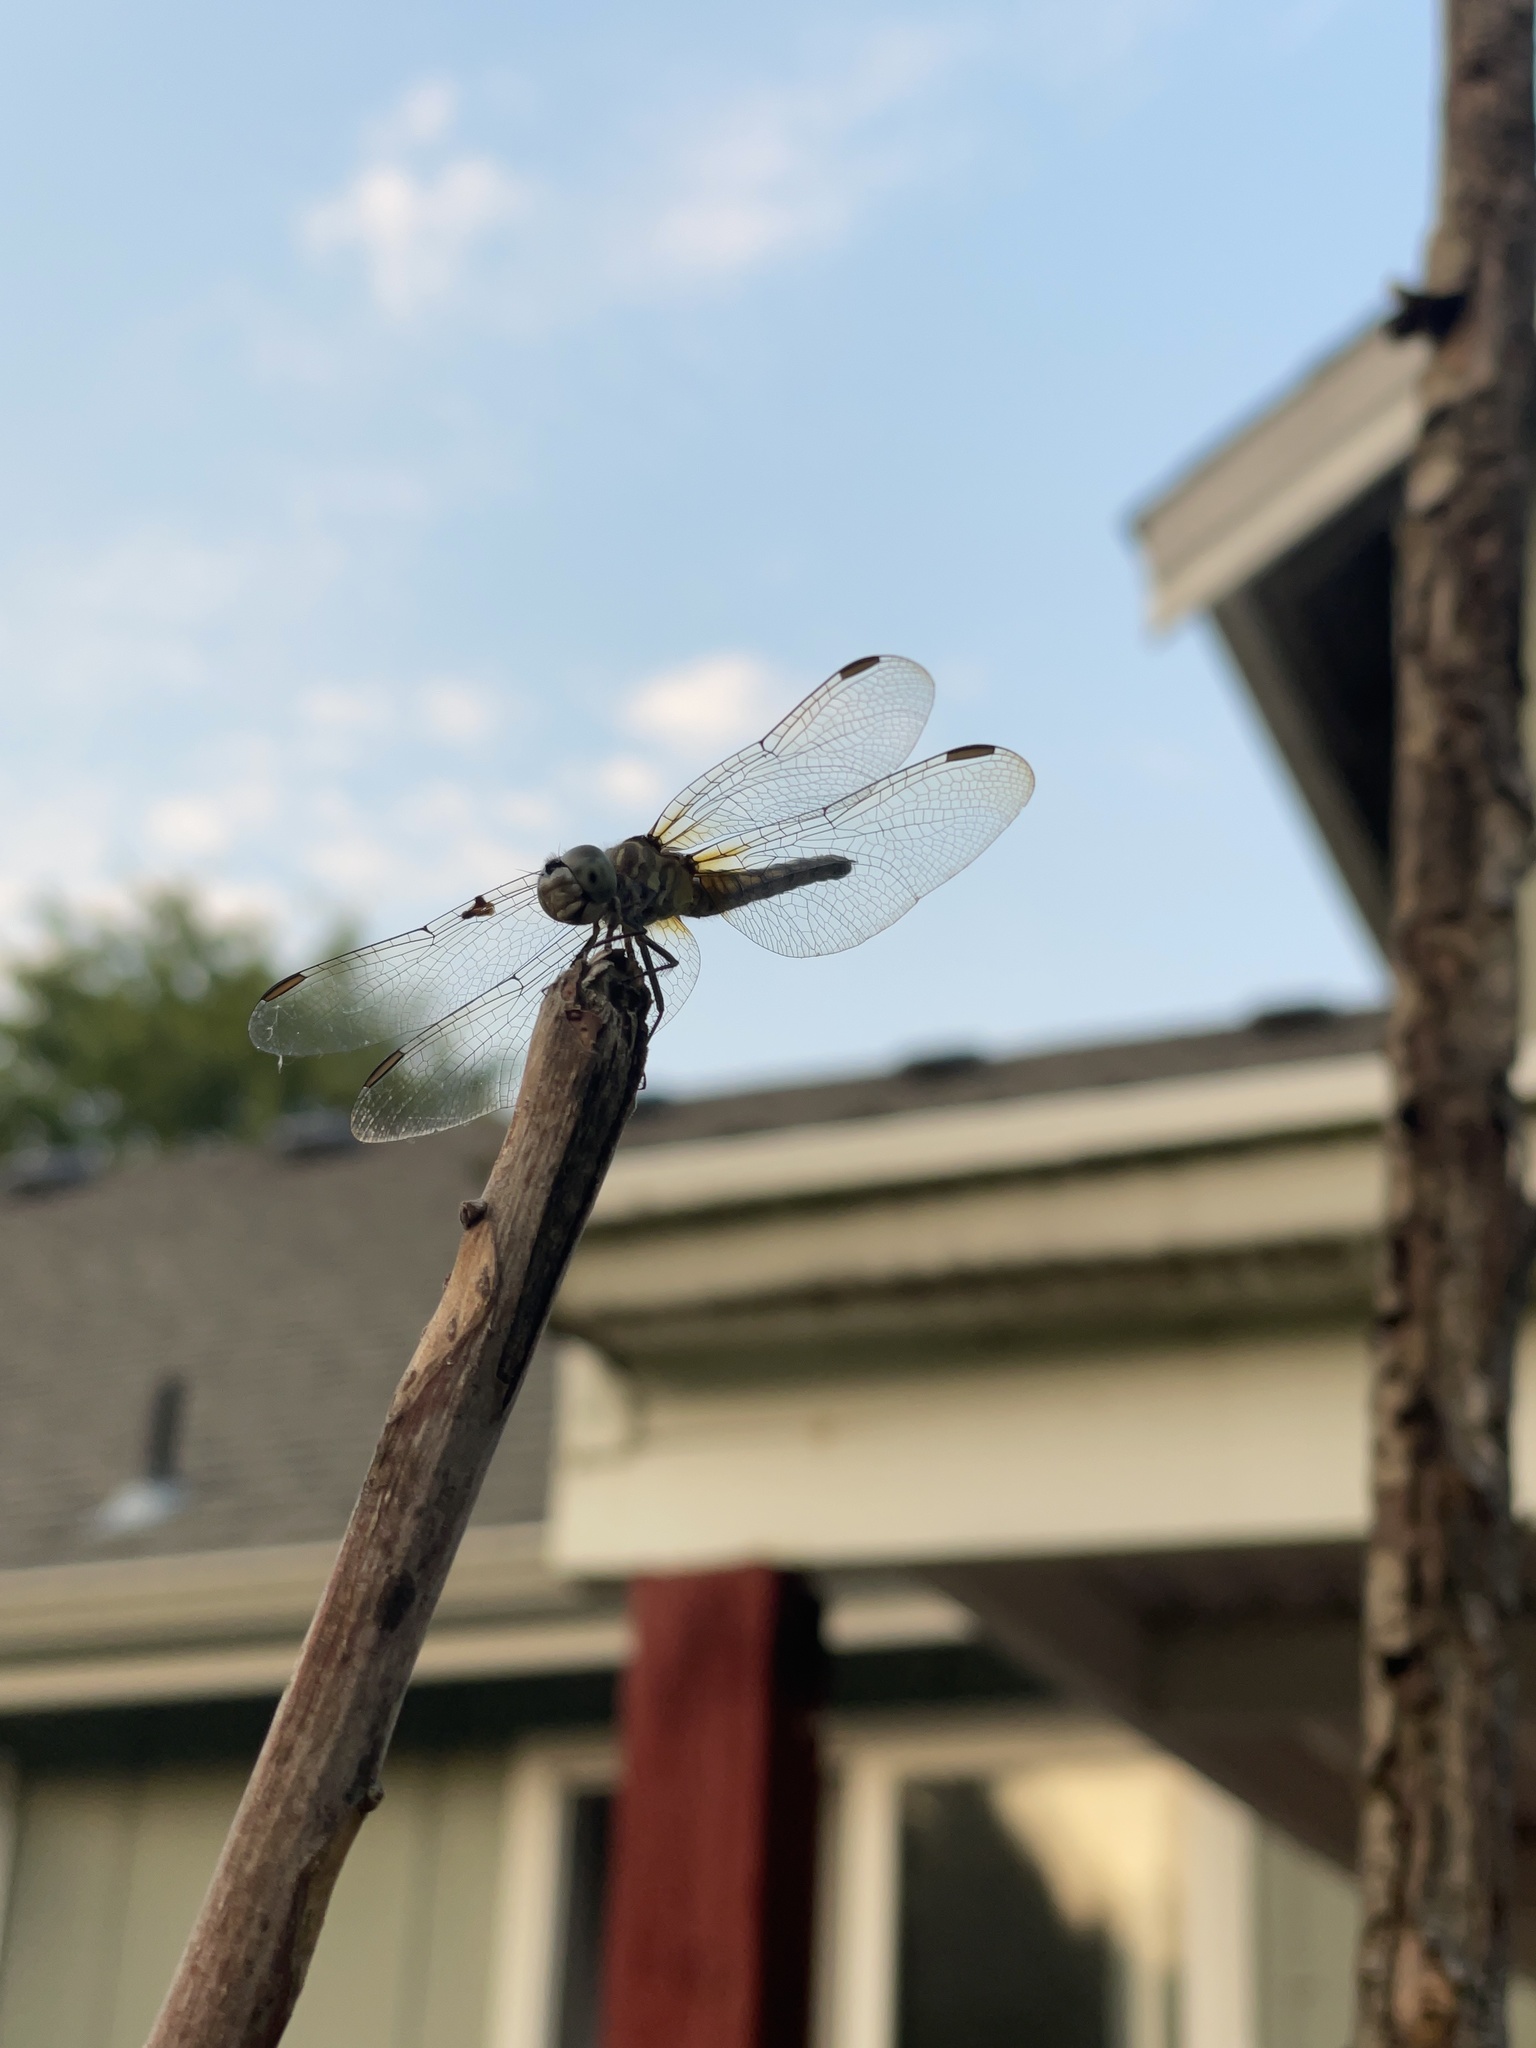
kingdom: Animalia
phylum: Arthropoda
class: Insecta
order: Odonata
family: Libellulidae
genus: Pachydiplax
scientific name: Pachydiplax longipennis
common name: Blue dasher
